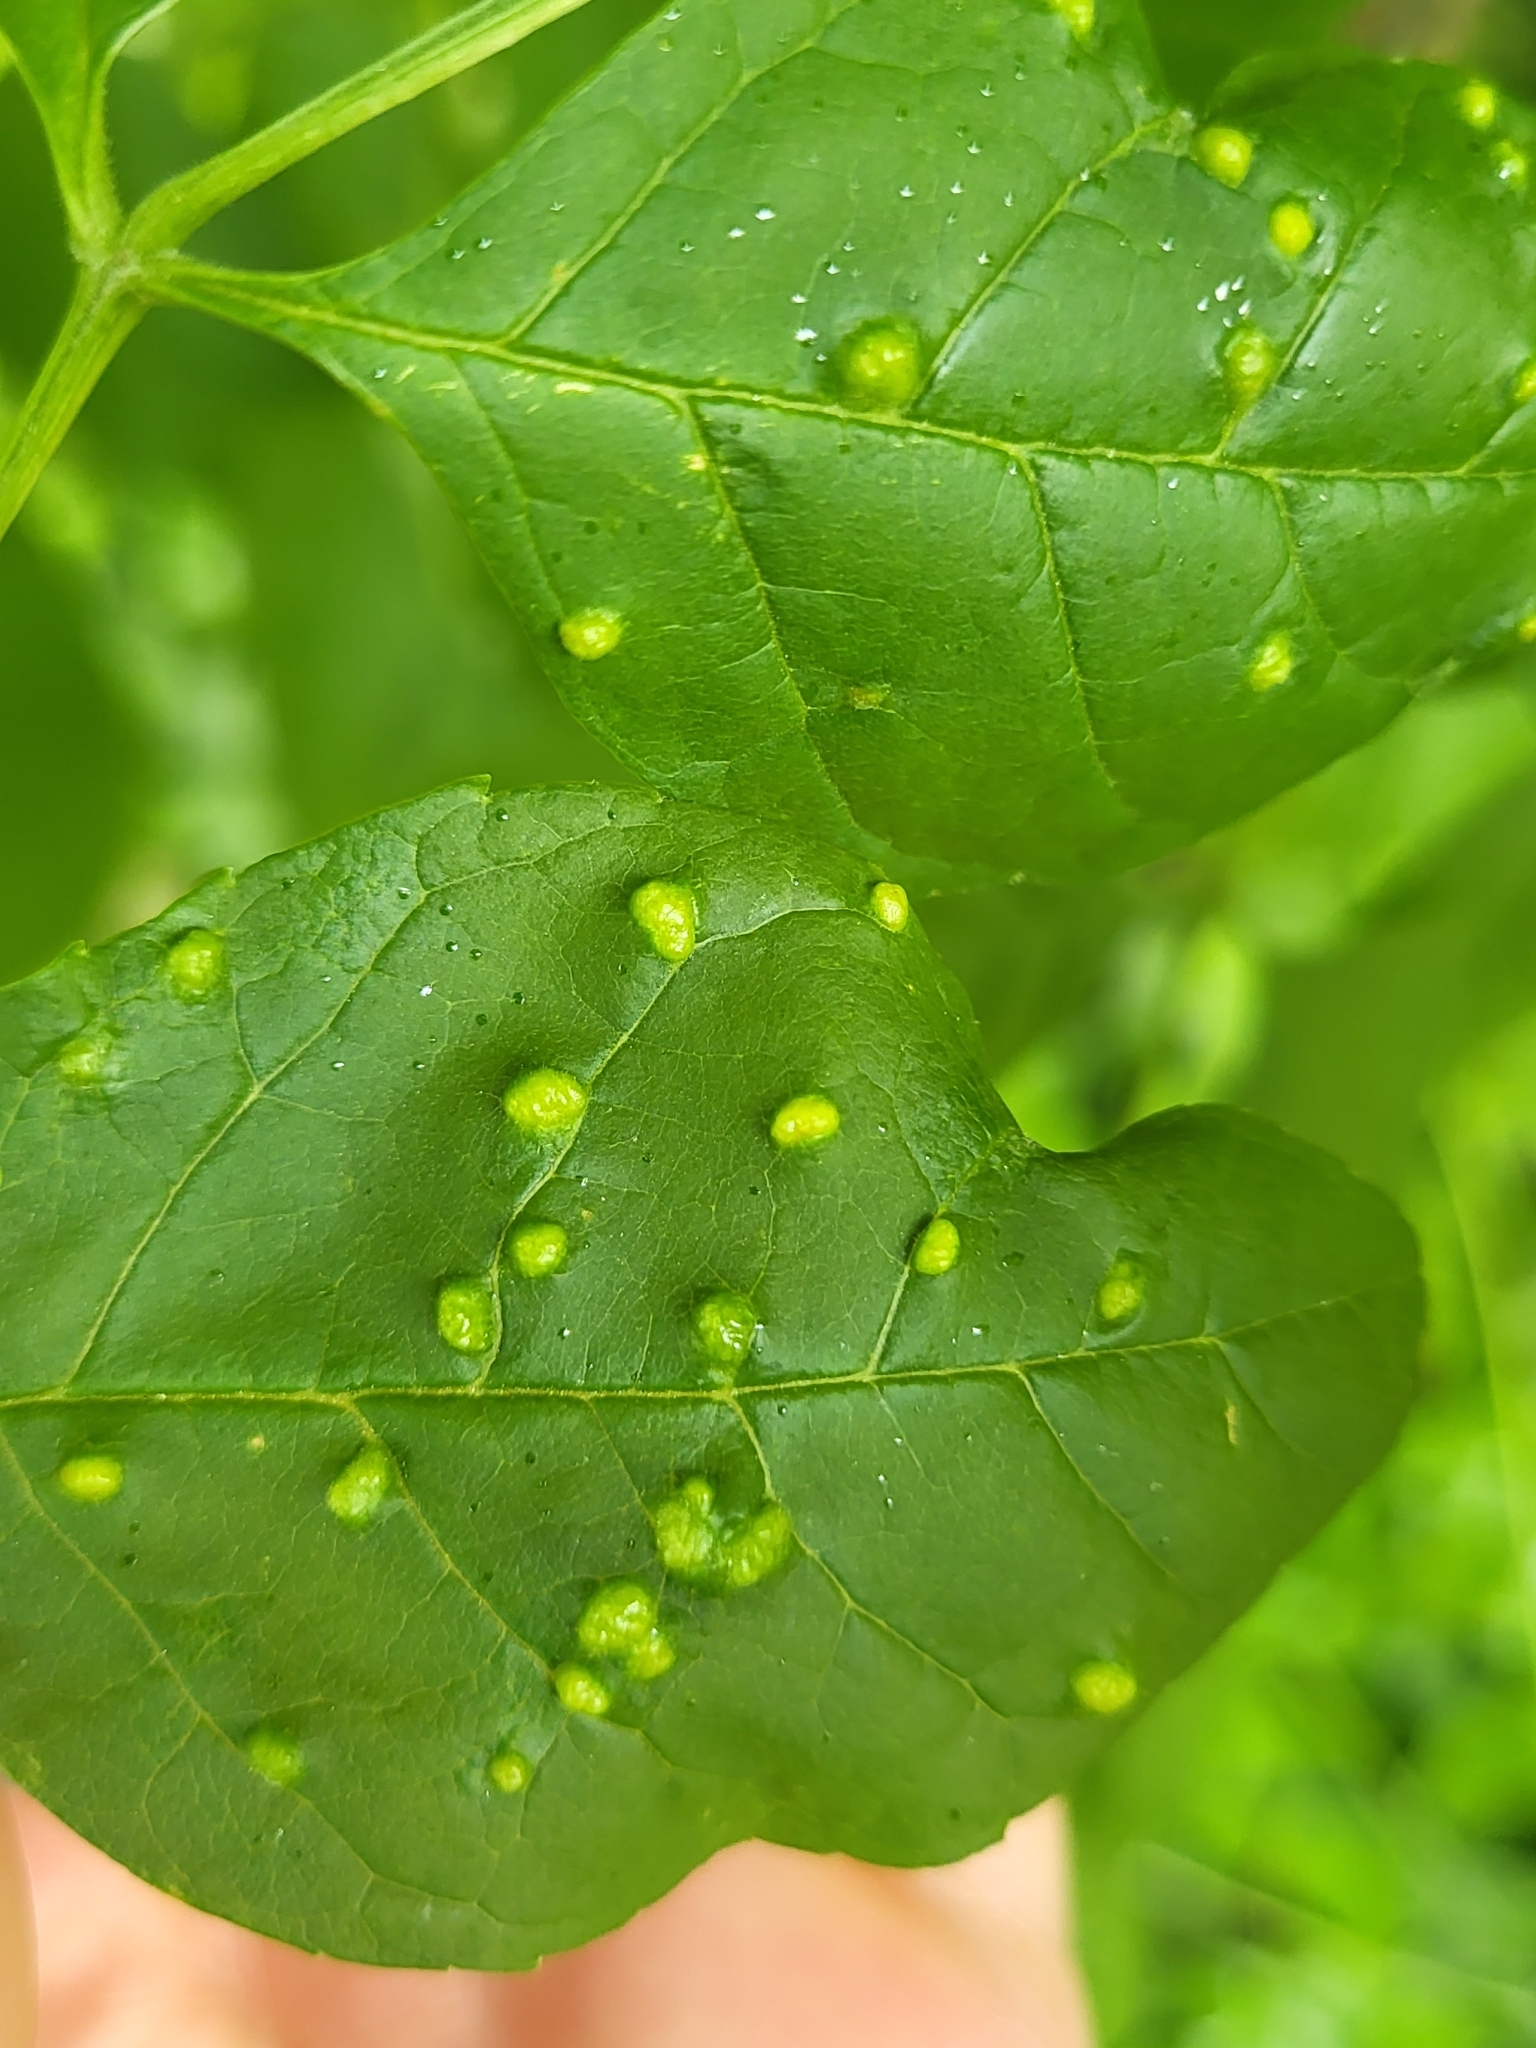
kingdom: Animalia
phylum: Arthropoda
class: Arachnida
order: Trombidiformes
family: Eriophyidae
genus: Aceria
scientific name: Aceria fraxinicola
